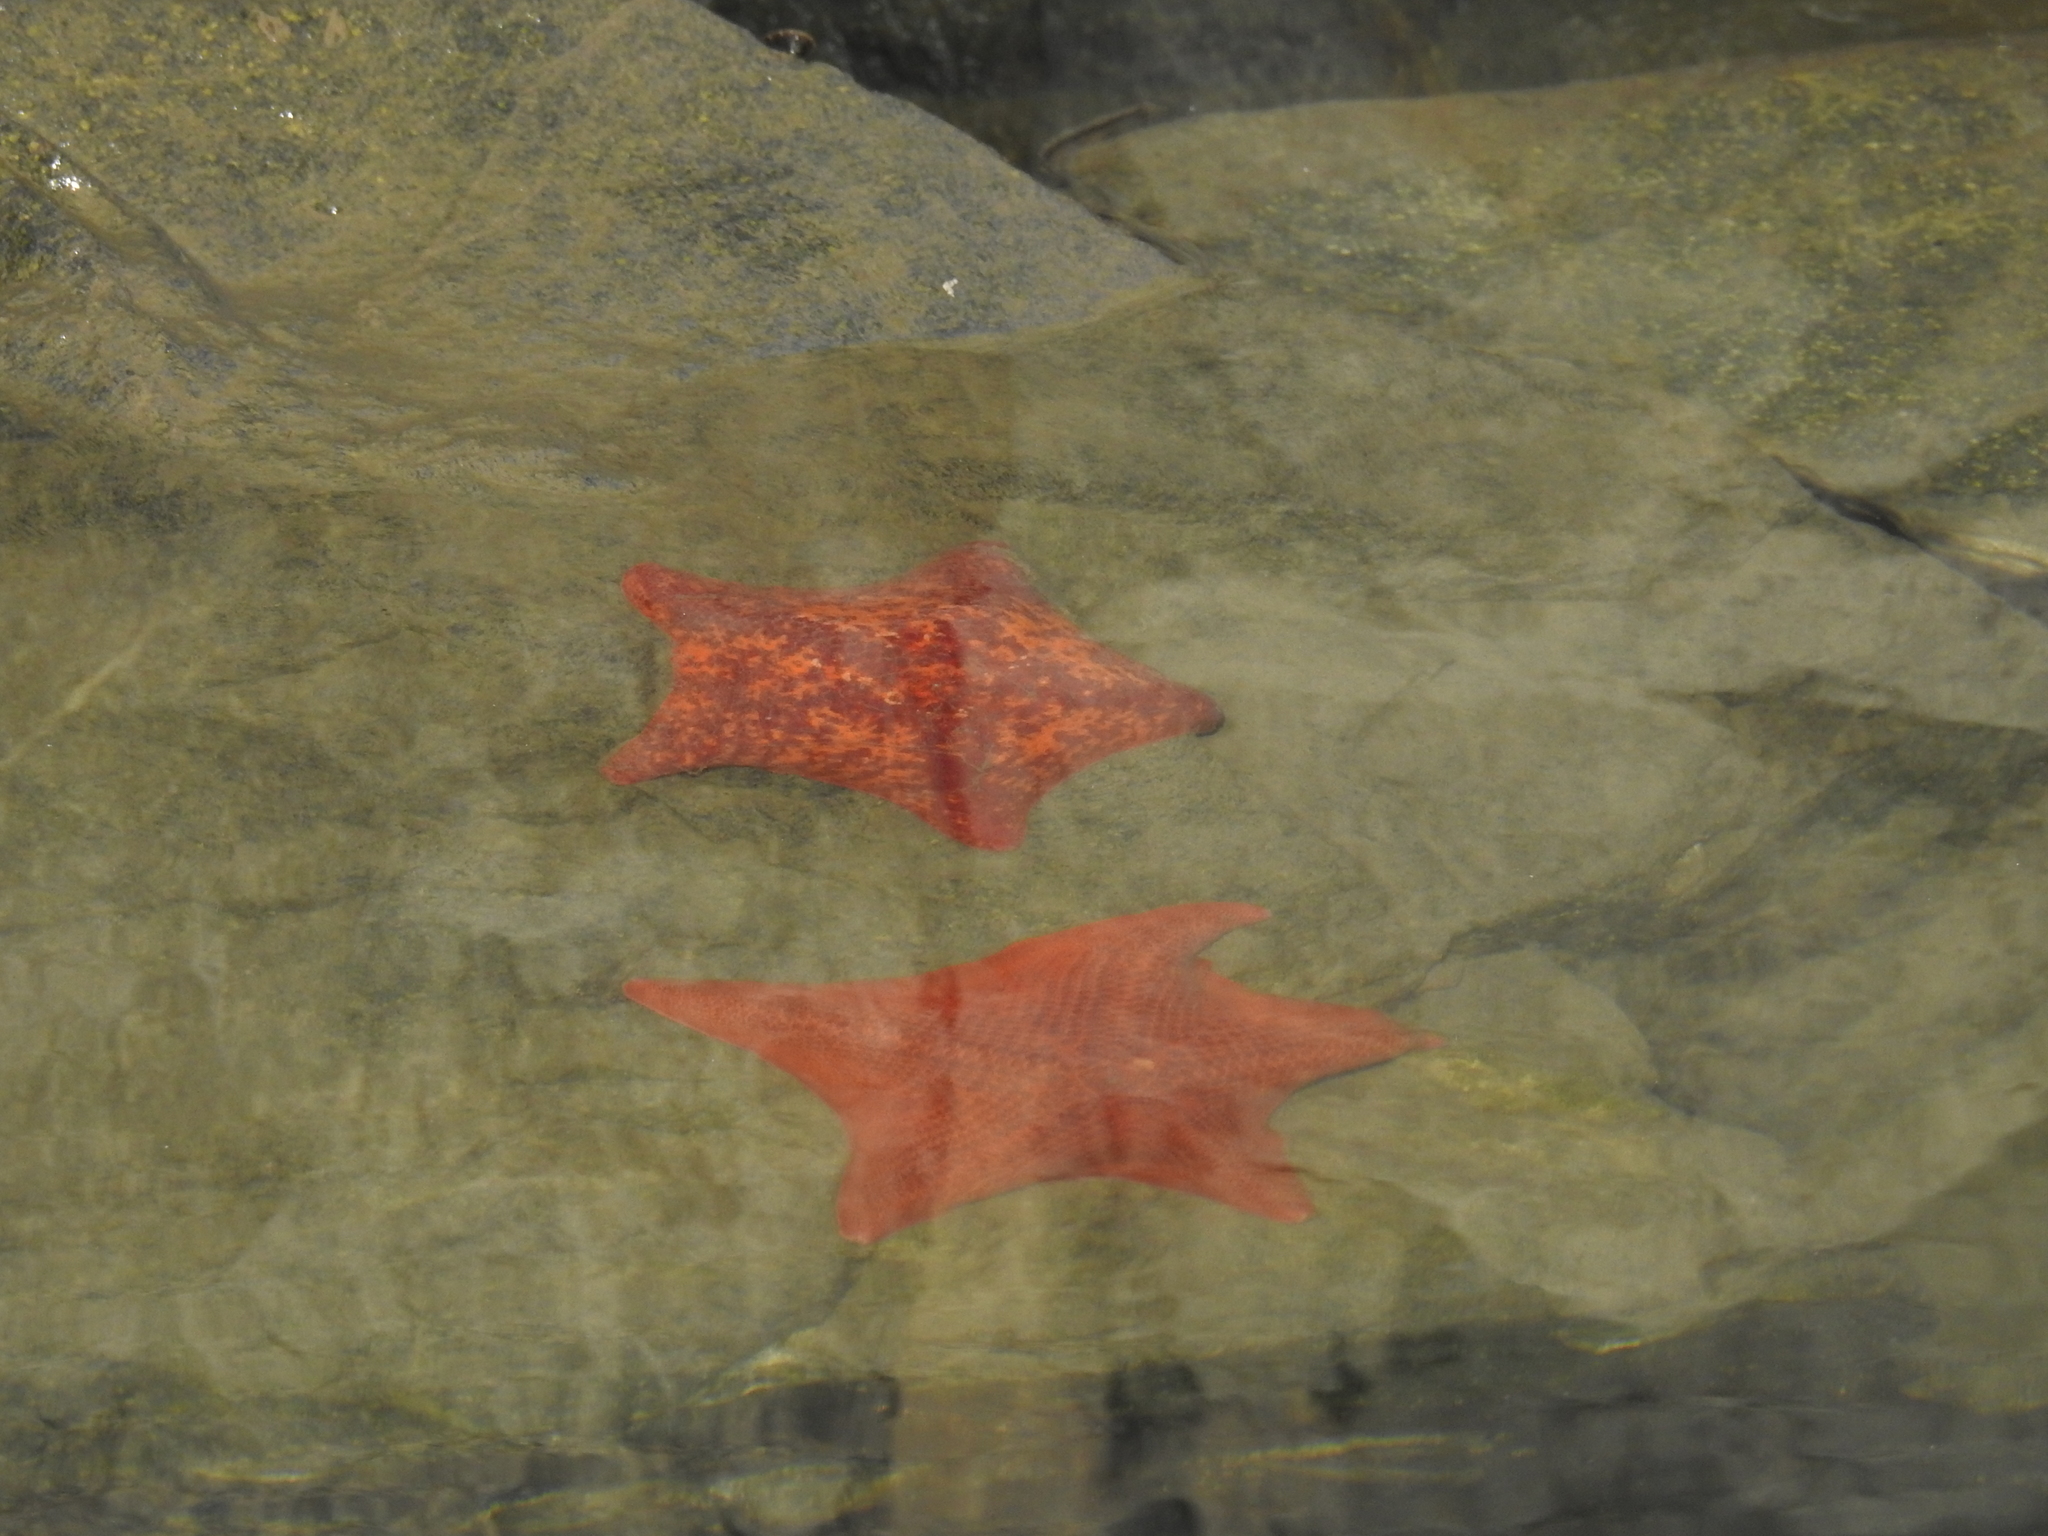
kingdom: Animalia
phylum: Echinodermata
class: Asteroidea
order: Valvatida
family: Asterinidae
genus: Patiria
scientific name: Patiria miniata
